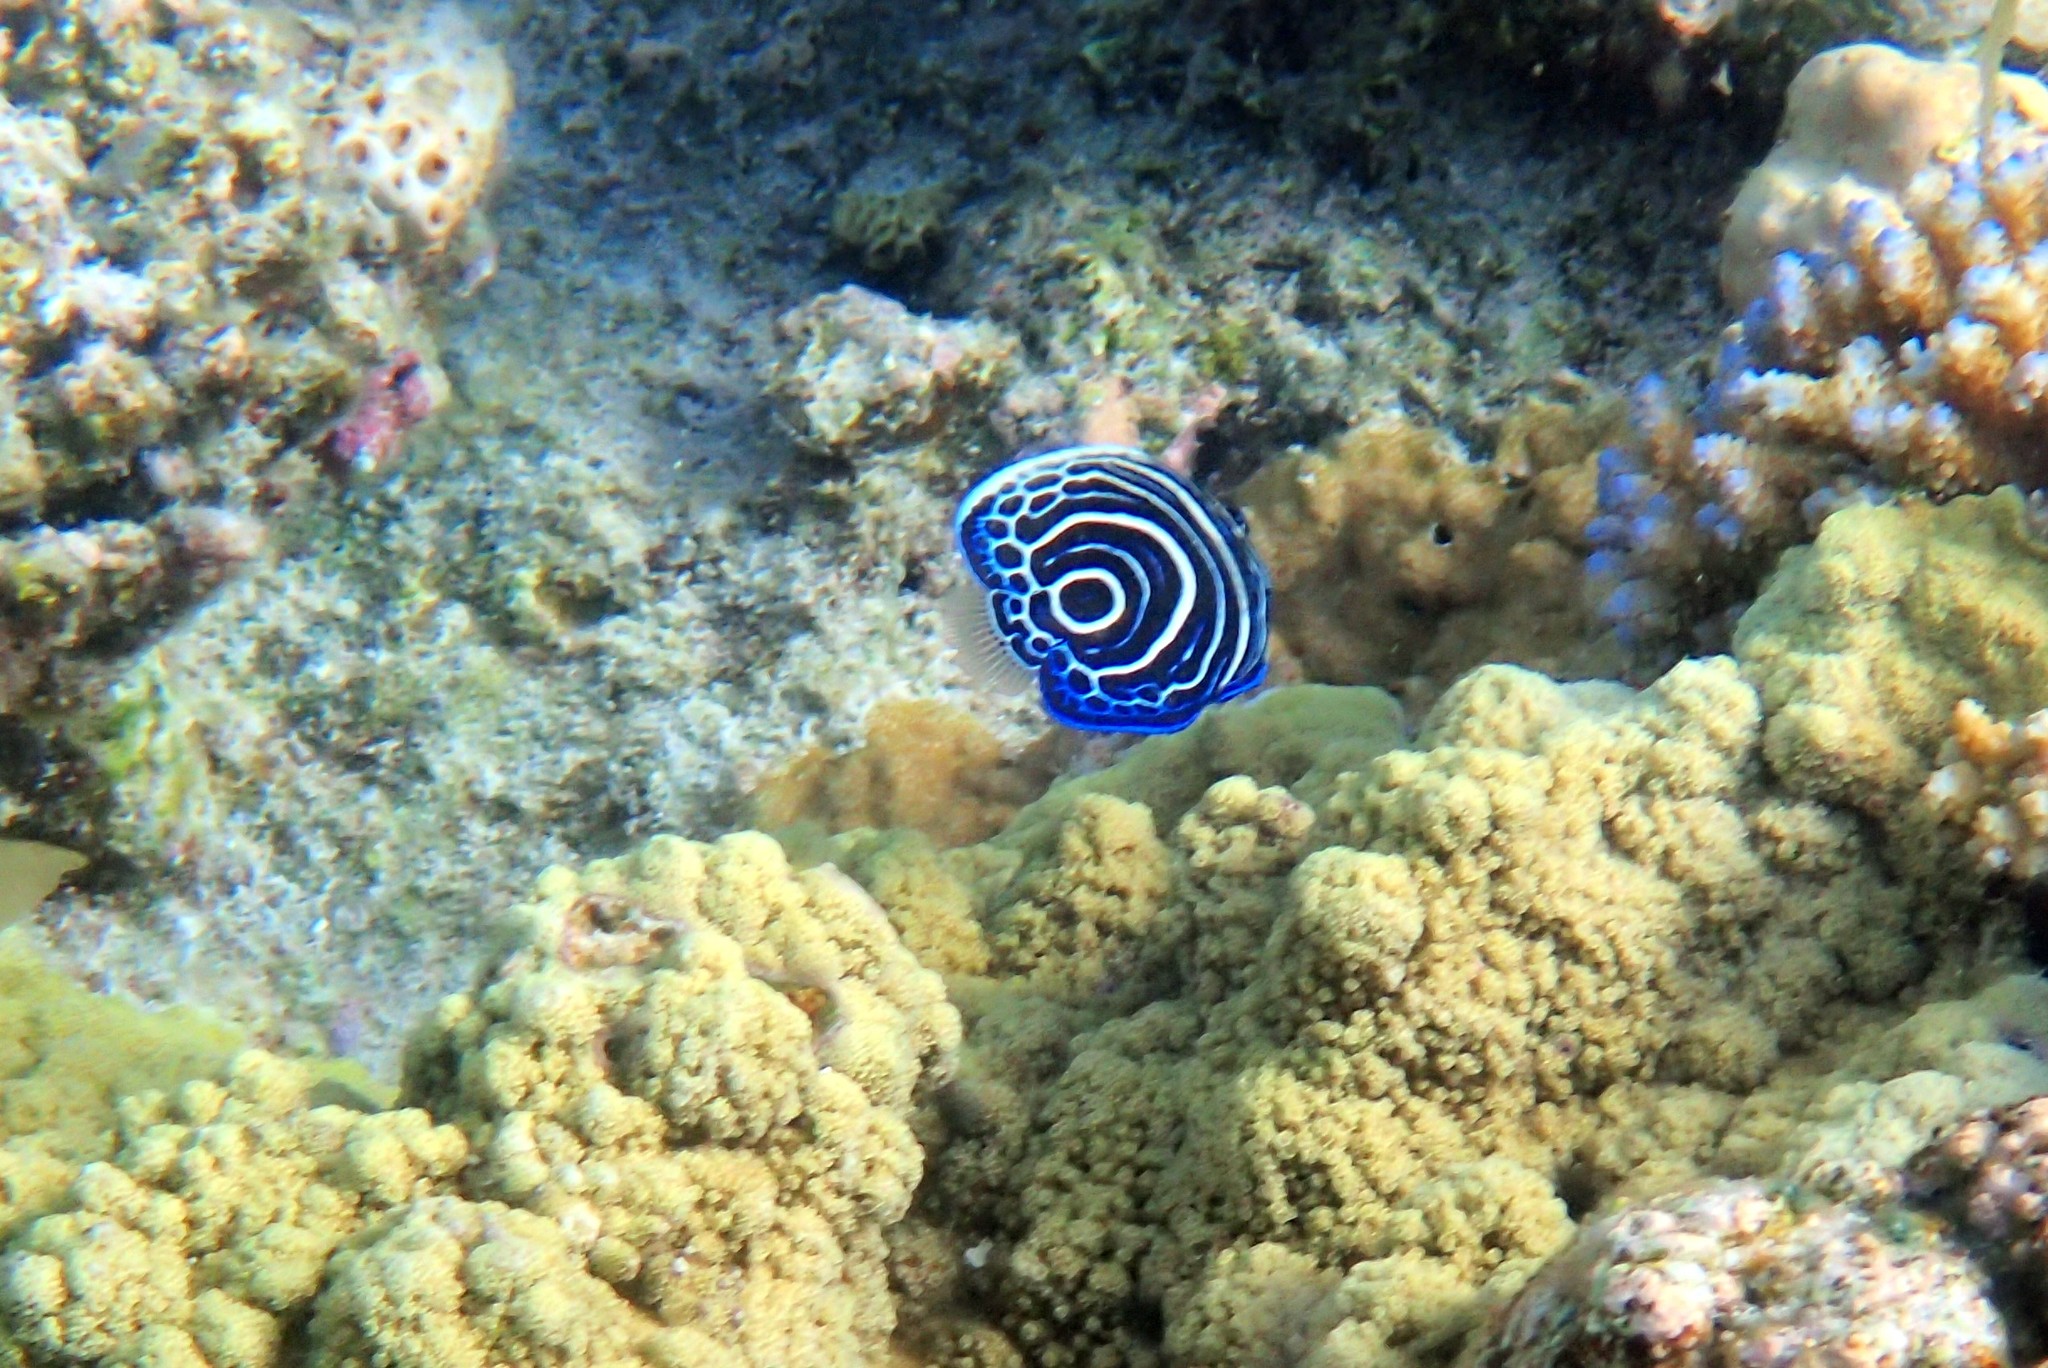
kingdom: Animalia
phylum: Chordata
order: Perciformes
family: Pomacanthidae
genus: Pomacanthus
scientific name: Pomacanthus imperator
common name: Emperor angelfish
